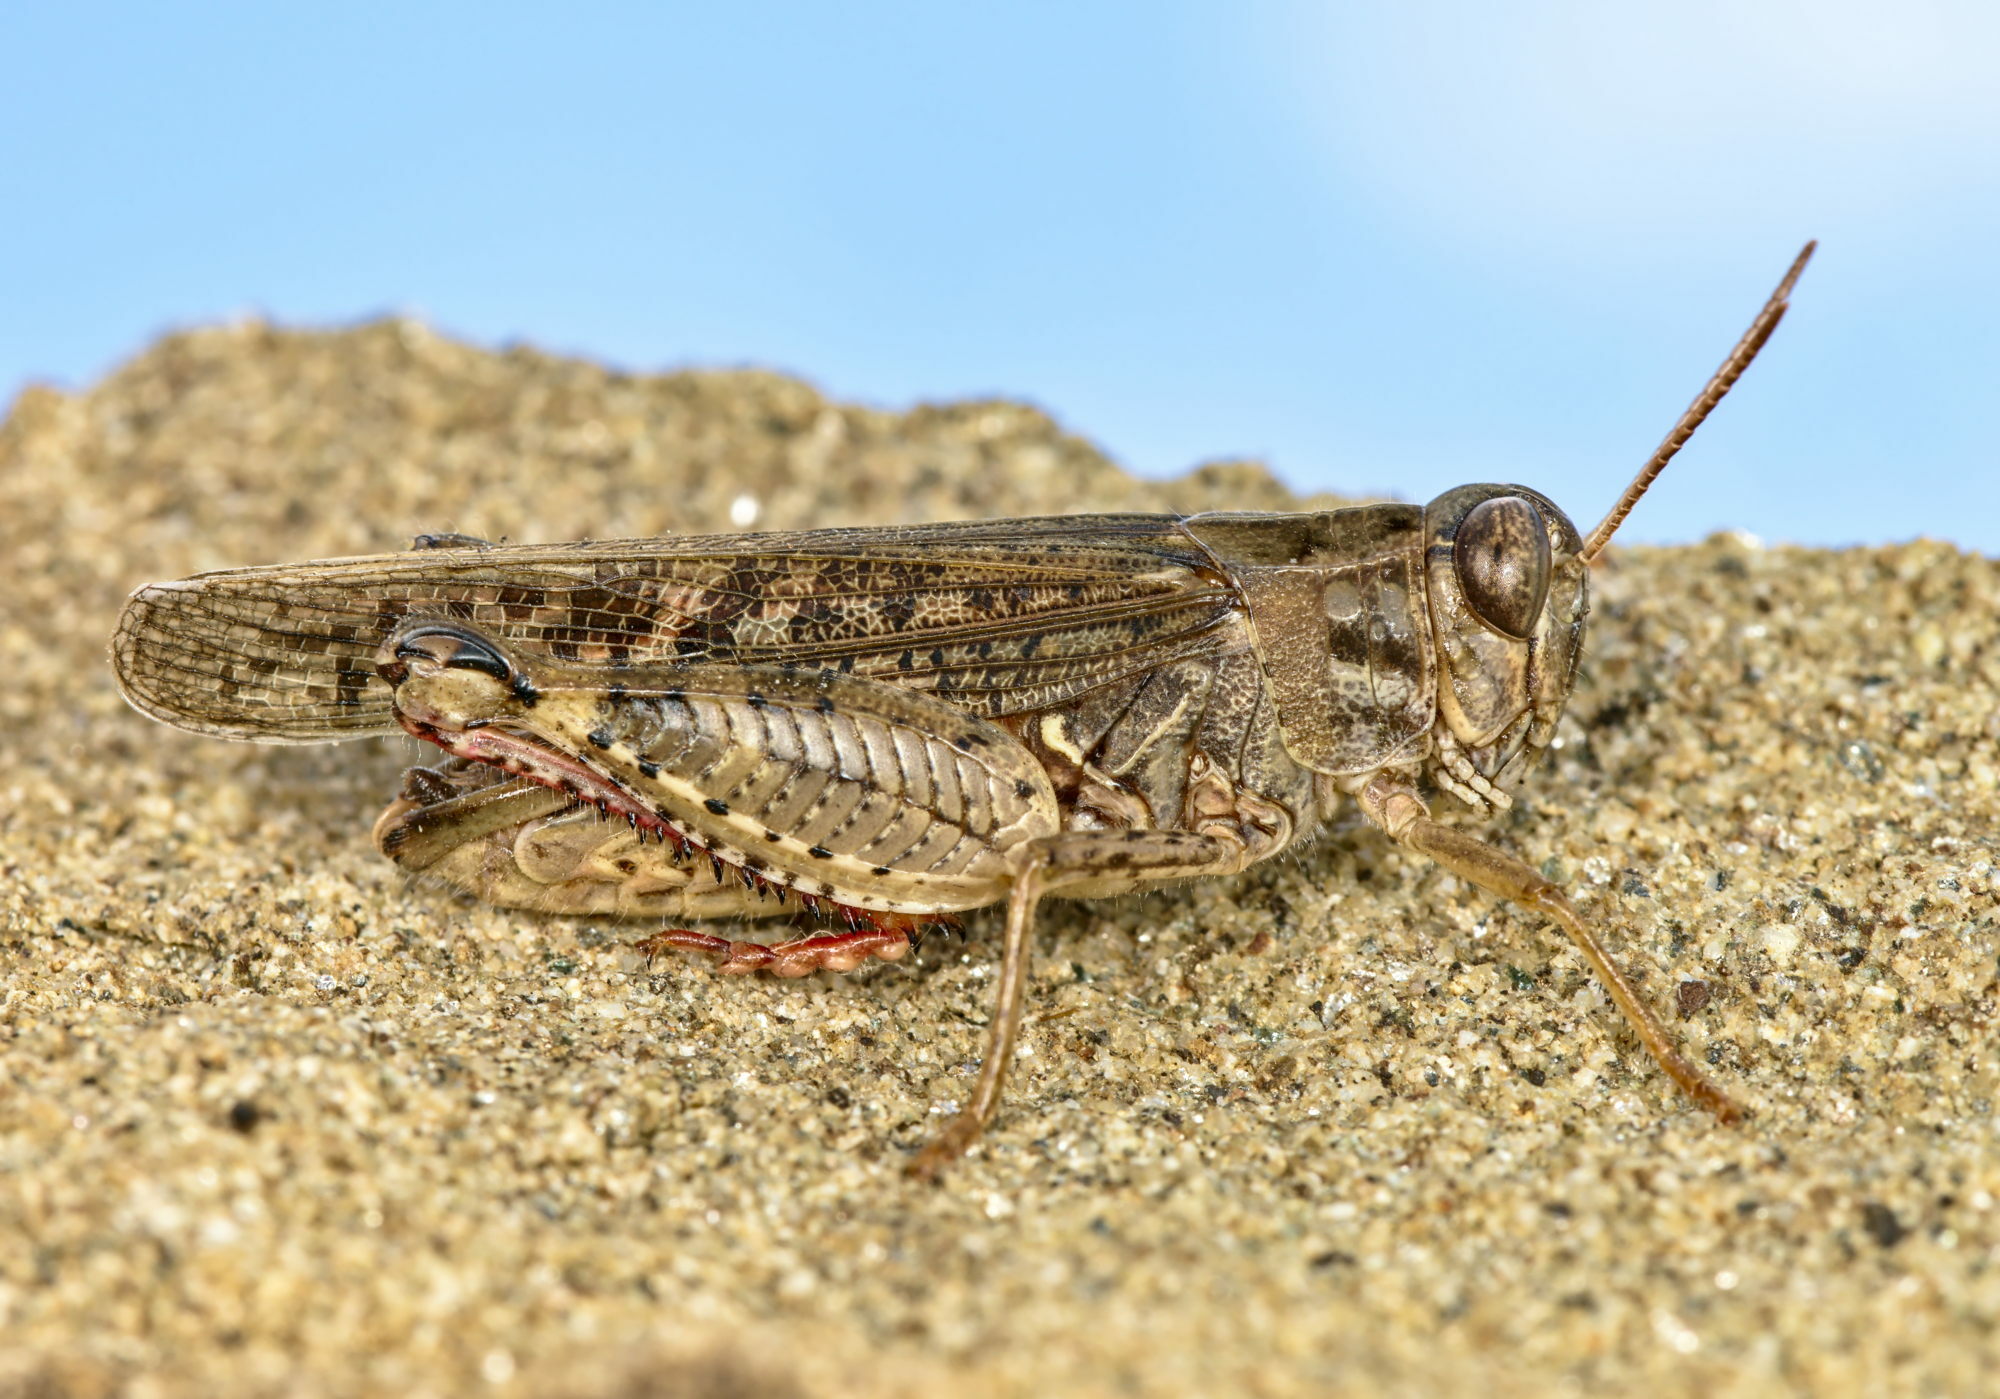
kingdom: Animalia
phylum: Arthropoda
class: Insecta
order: Orthoptera
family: Acrididae
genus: Calliptamus
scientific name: Calliptamus italicus
